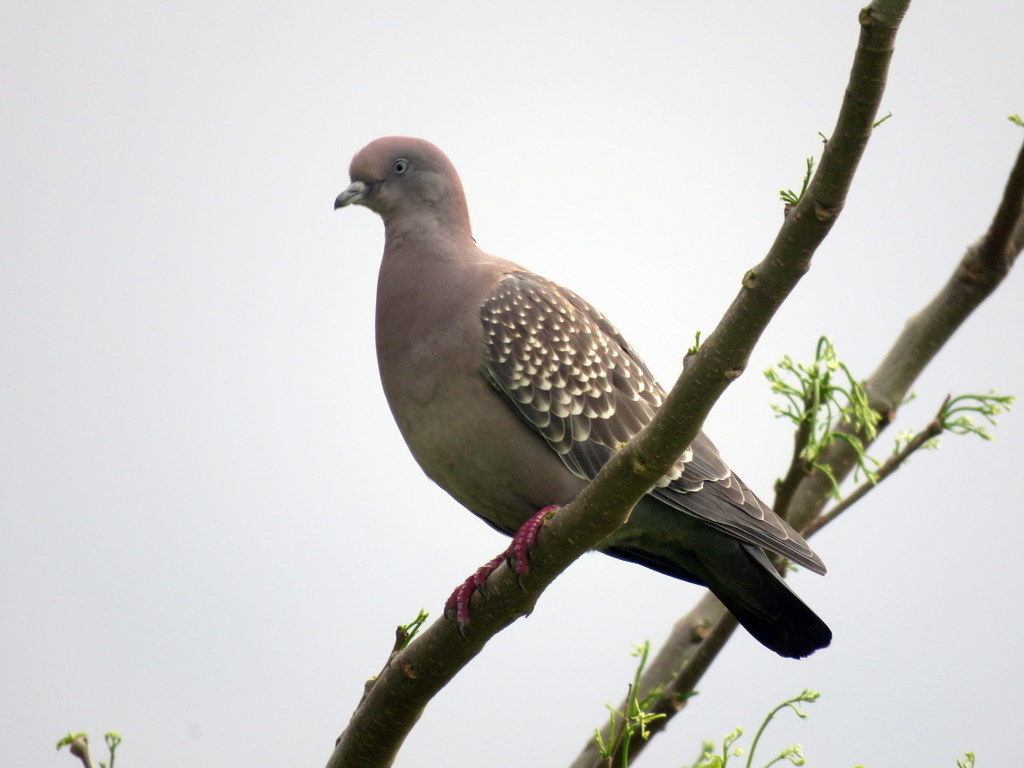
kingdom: Animalia
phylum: Chordata
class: Aves
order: Columbiformes
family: Columbidae
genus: Patagioenas
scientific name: Patagioenas maculosa
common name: Spot-winged pigeon
